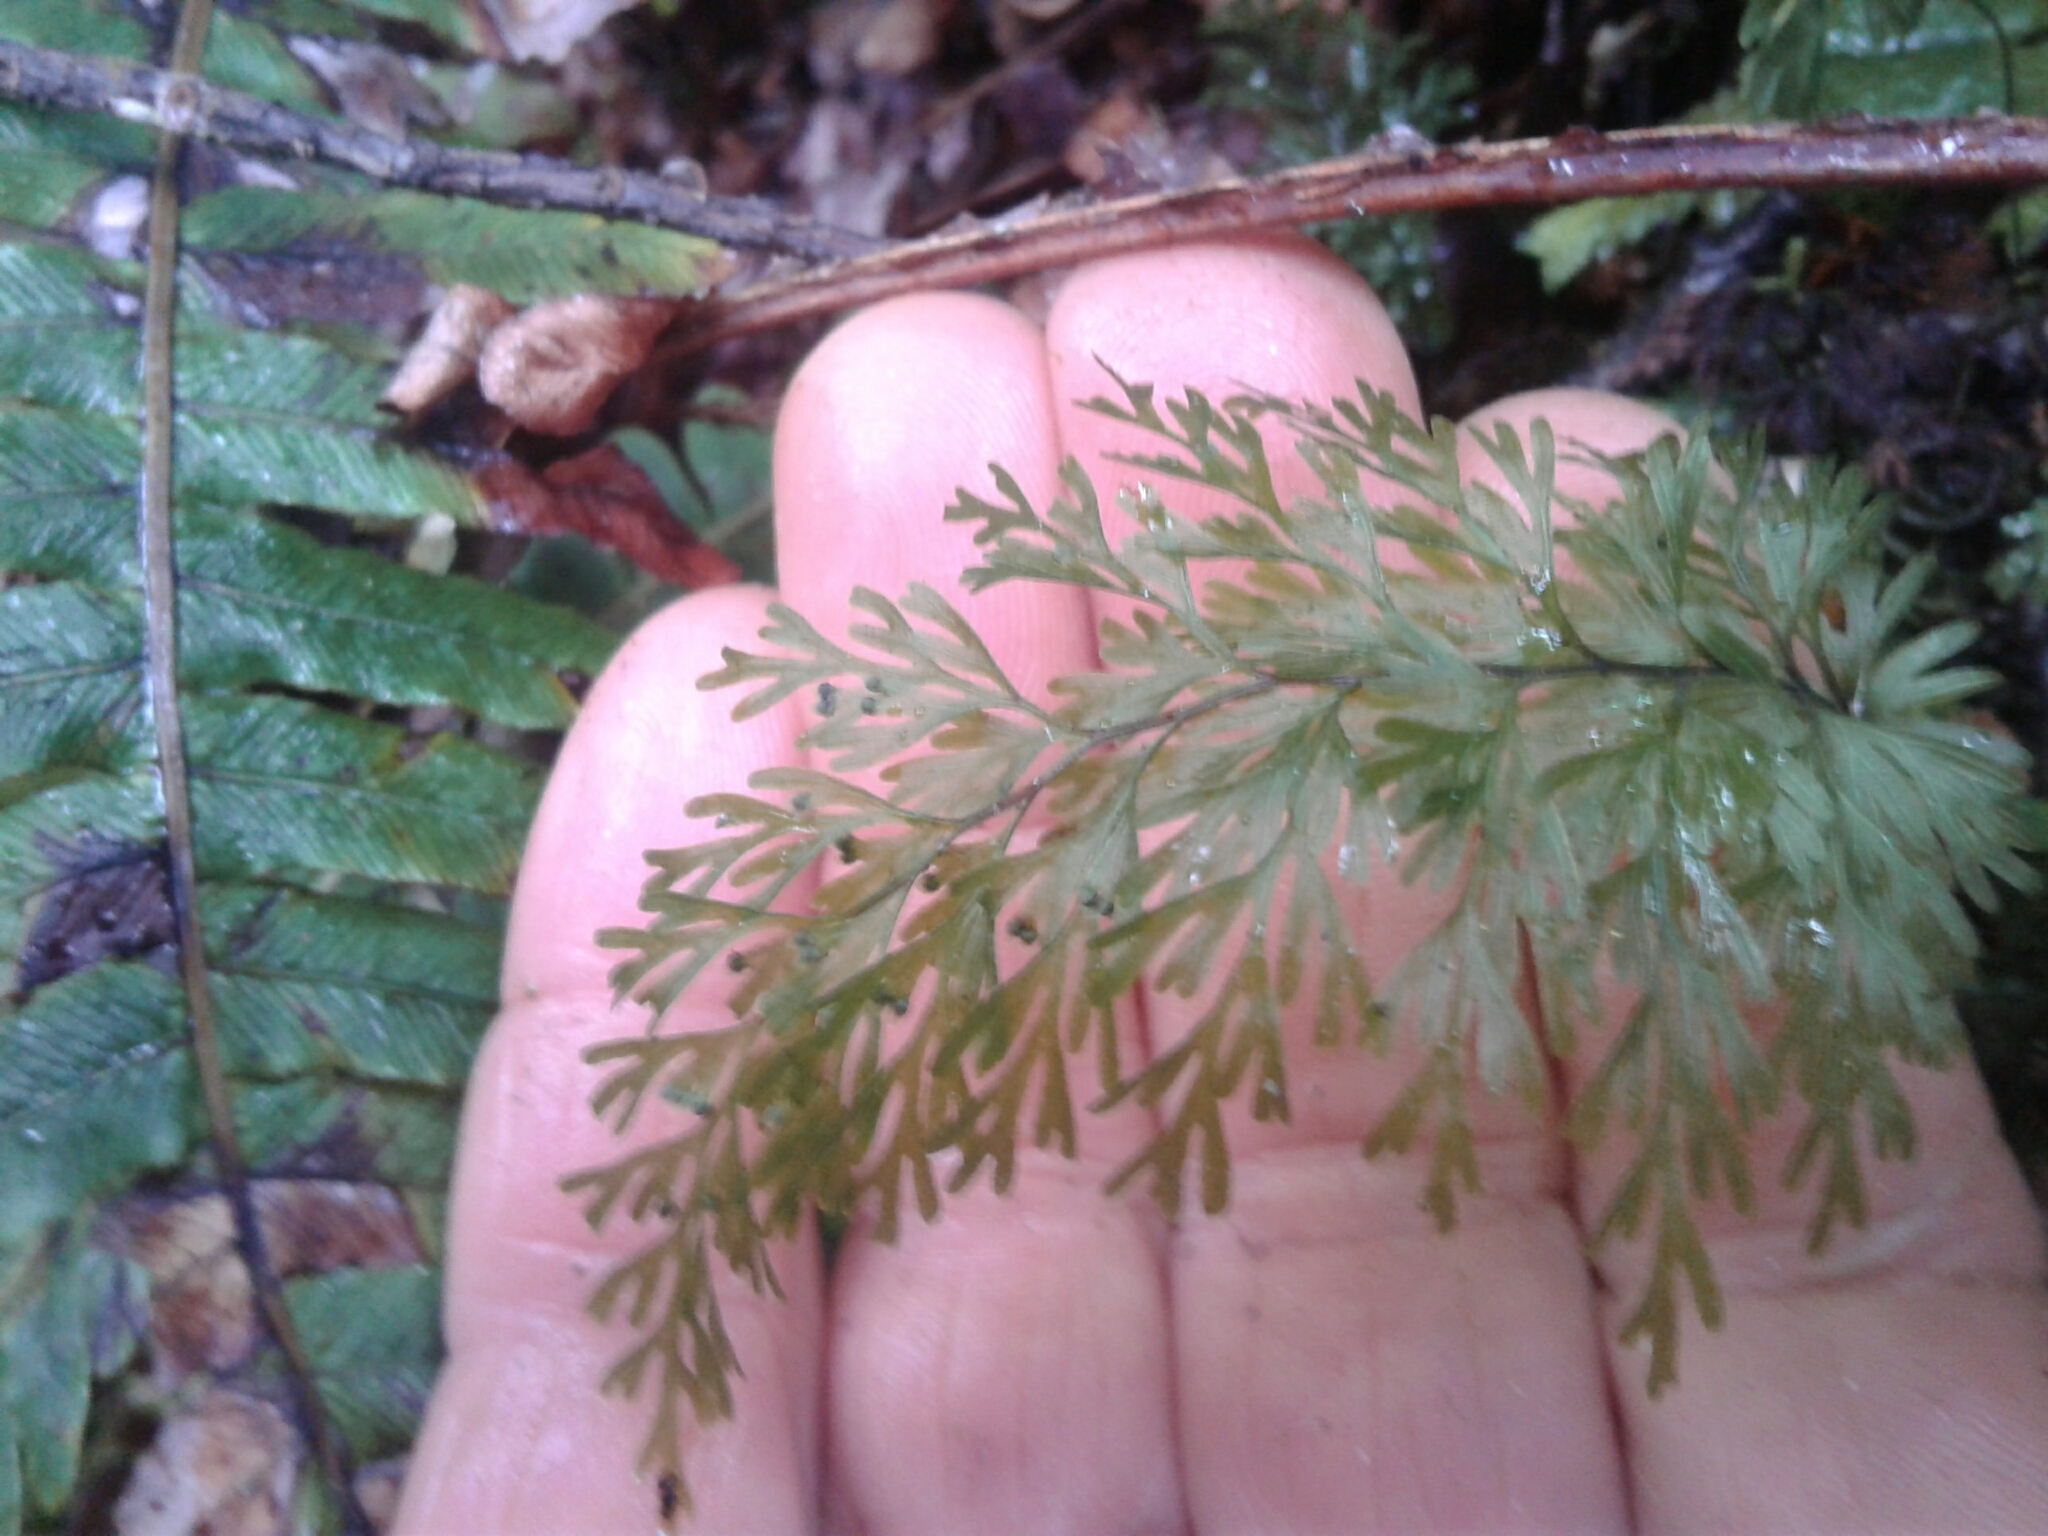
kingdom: Plantae
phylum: Tracheophyta
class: Polypodiopsida
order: Hymenophyllales
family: Hymenophyllaceae
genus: Hymenophyllum
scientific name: Hymenophyllum demissum
